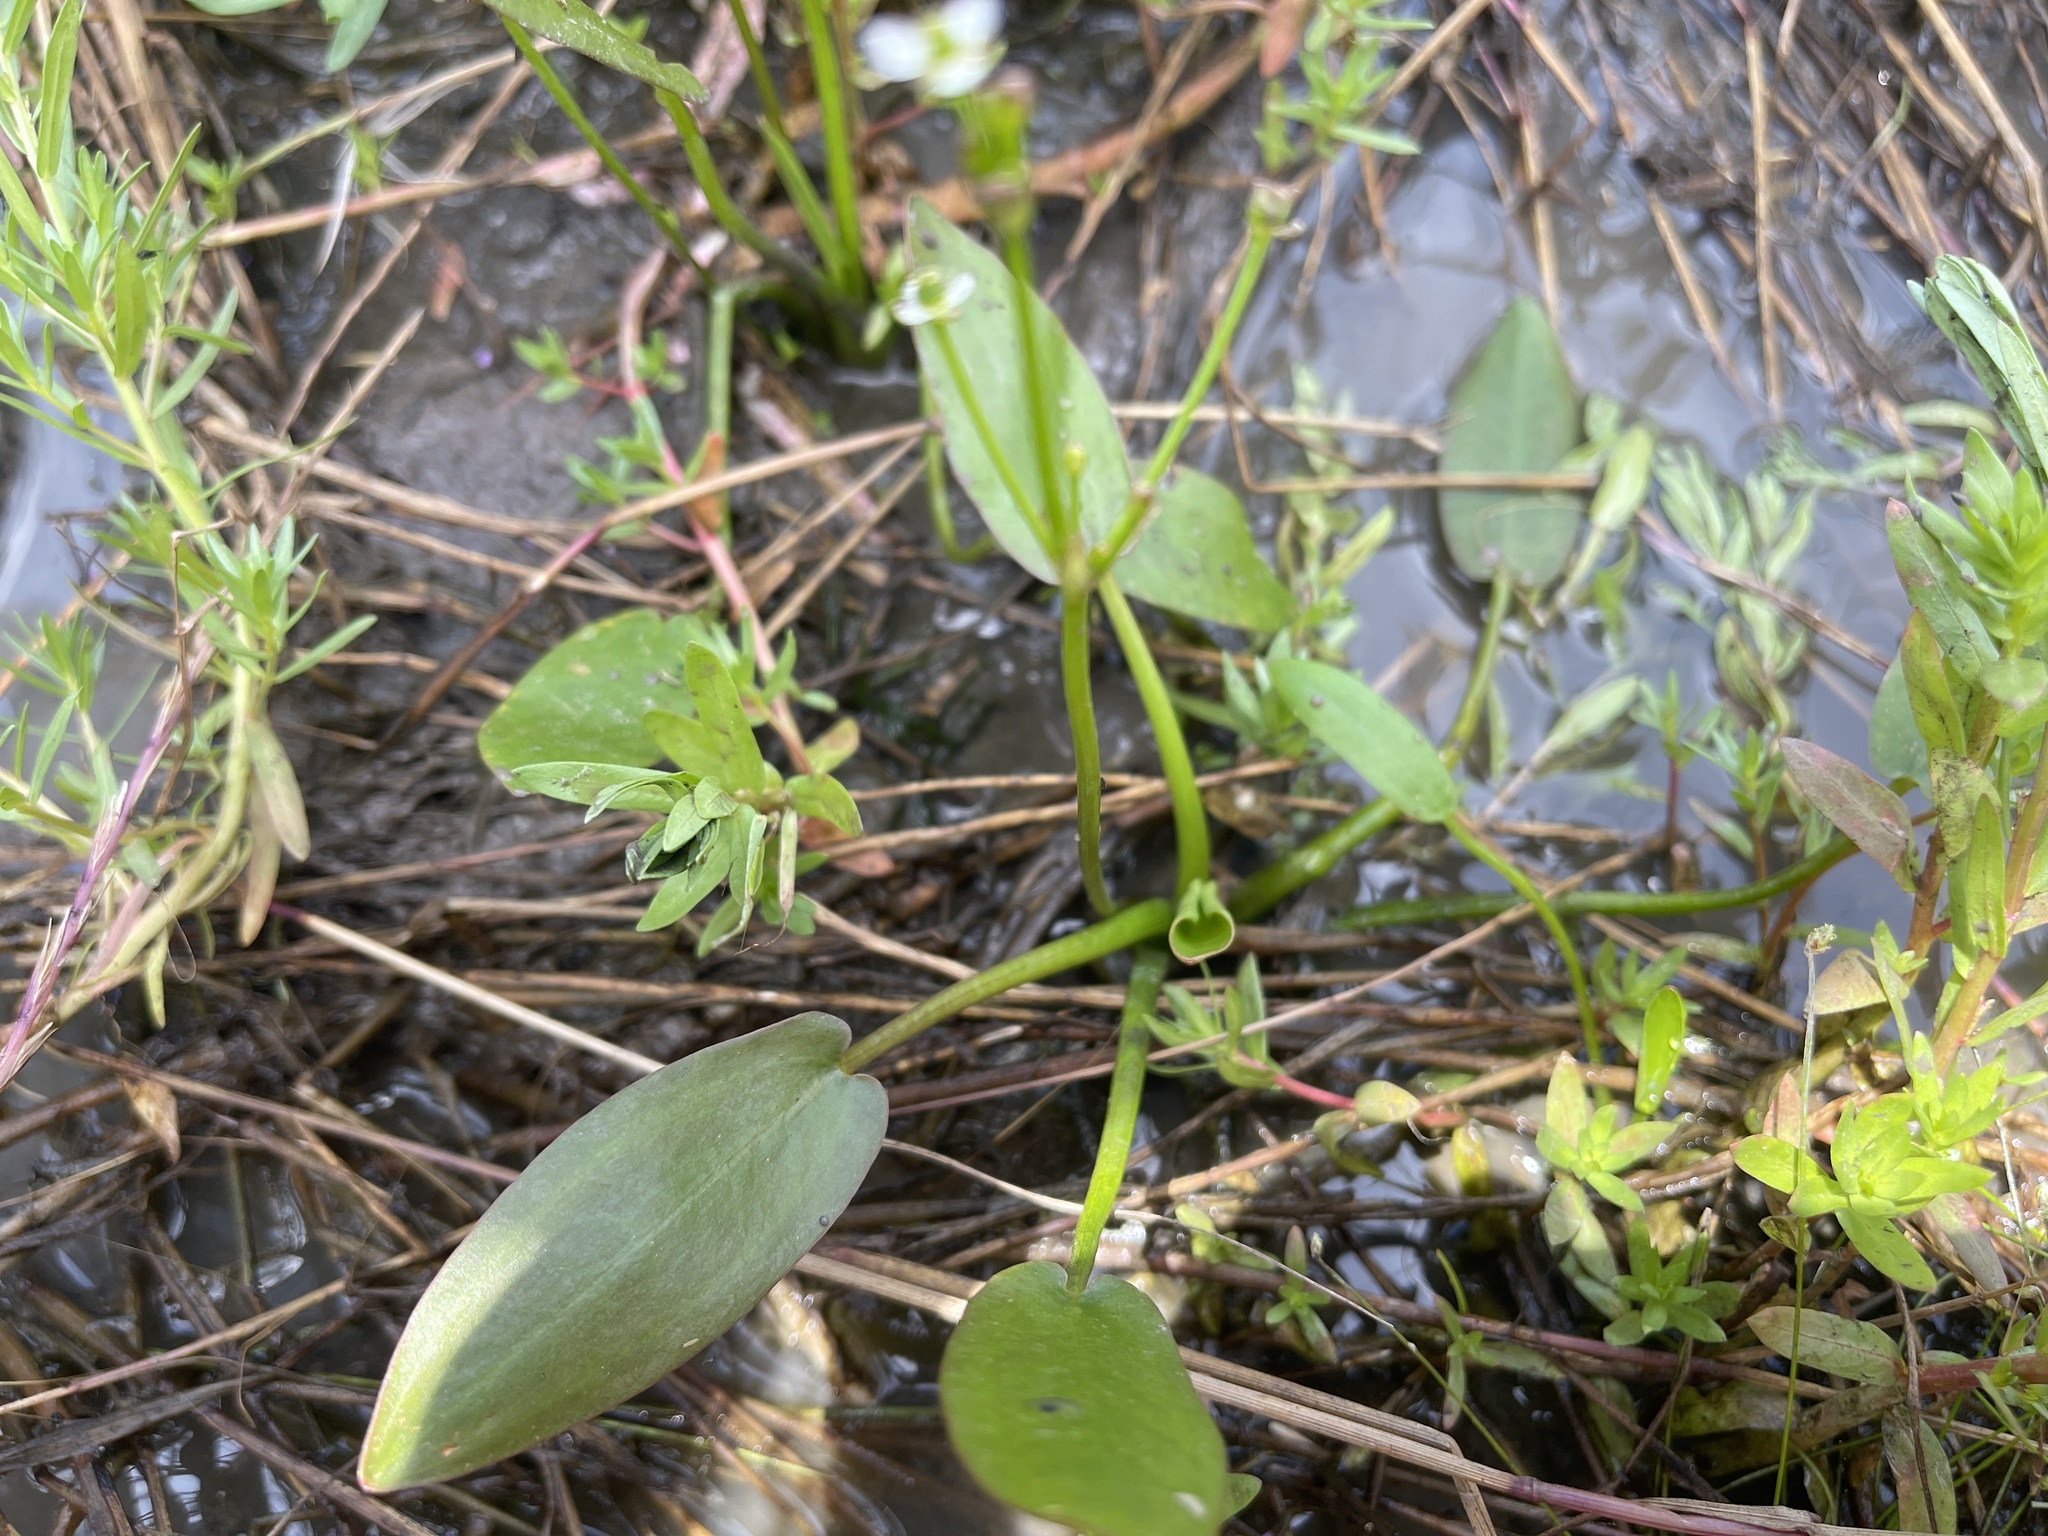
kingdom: Plantae
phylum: Tracheophyta
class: Liliopsida
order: Alismatales
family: Alismataceae
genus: Damasonium
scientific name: Damasonium minus
